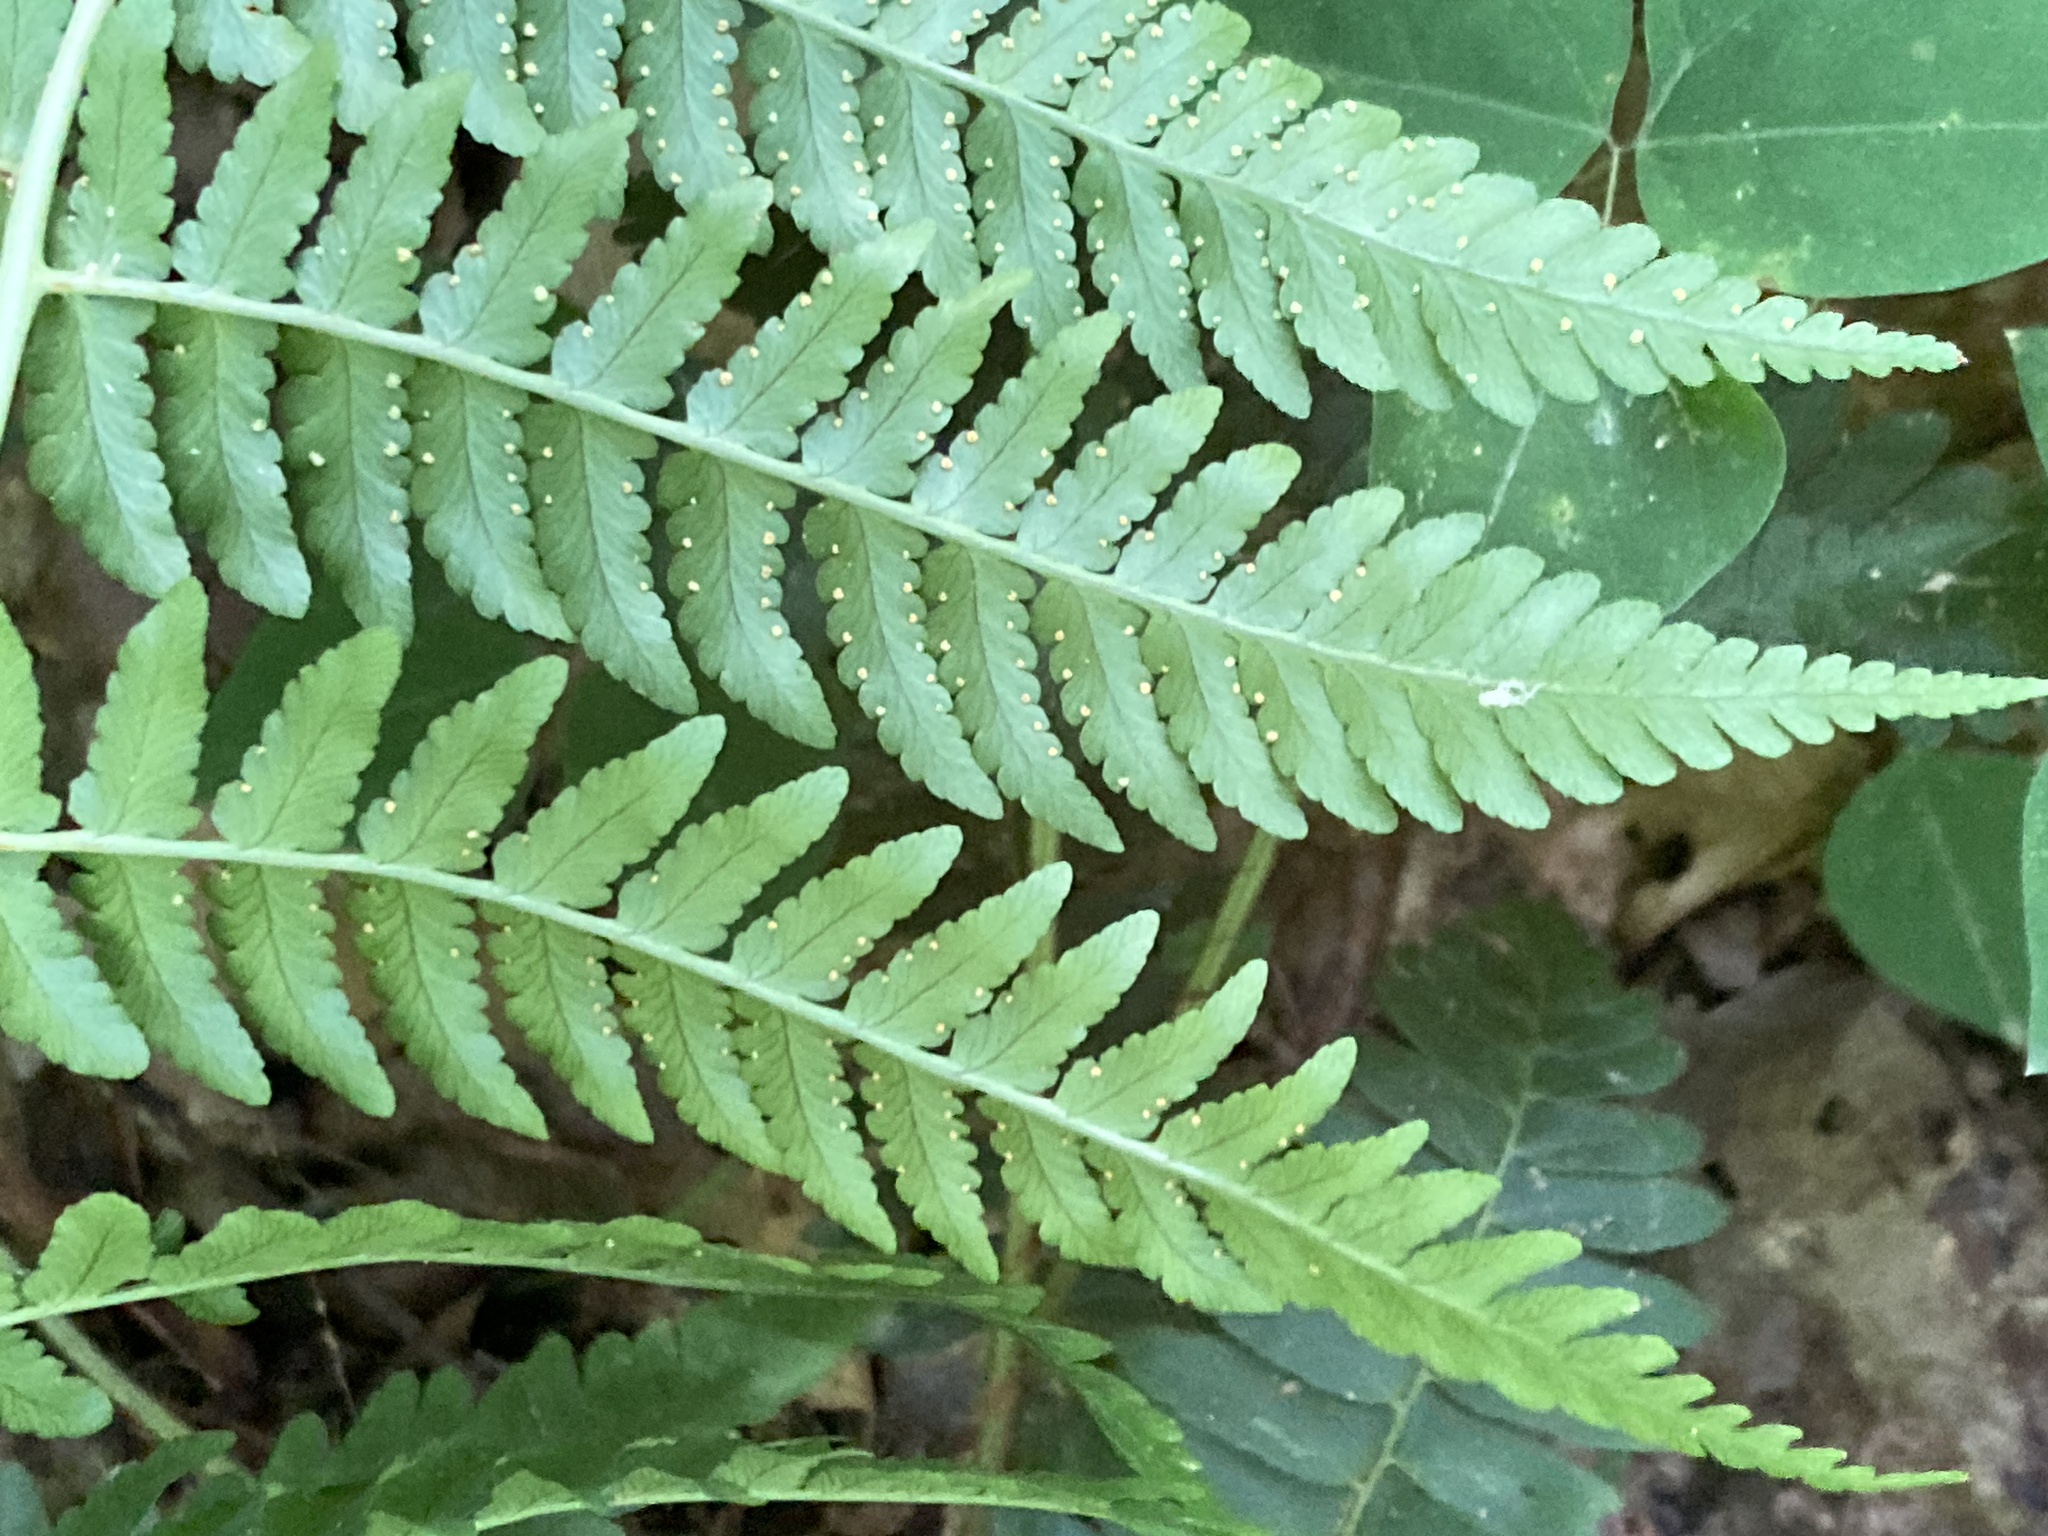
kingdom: Plantae
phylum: Tracheophyta
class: Polypodiopsida
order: Polypodiales
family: Dryopteridaceae
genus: Dryopteris
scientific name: Dryopteris marginalis
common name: Marginal wood fern
